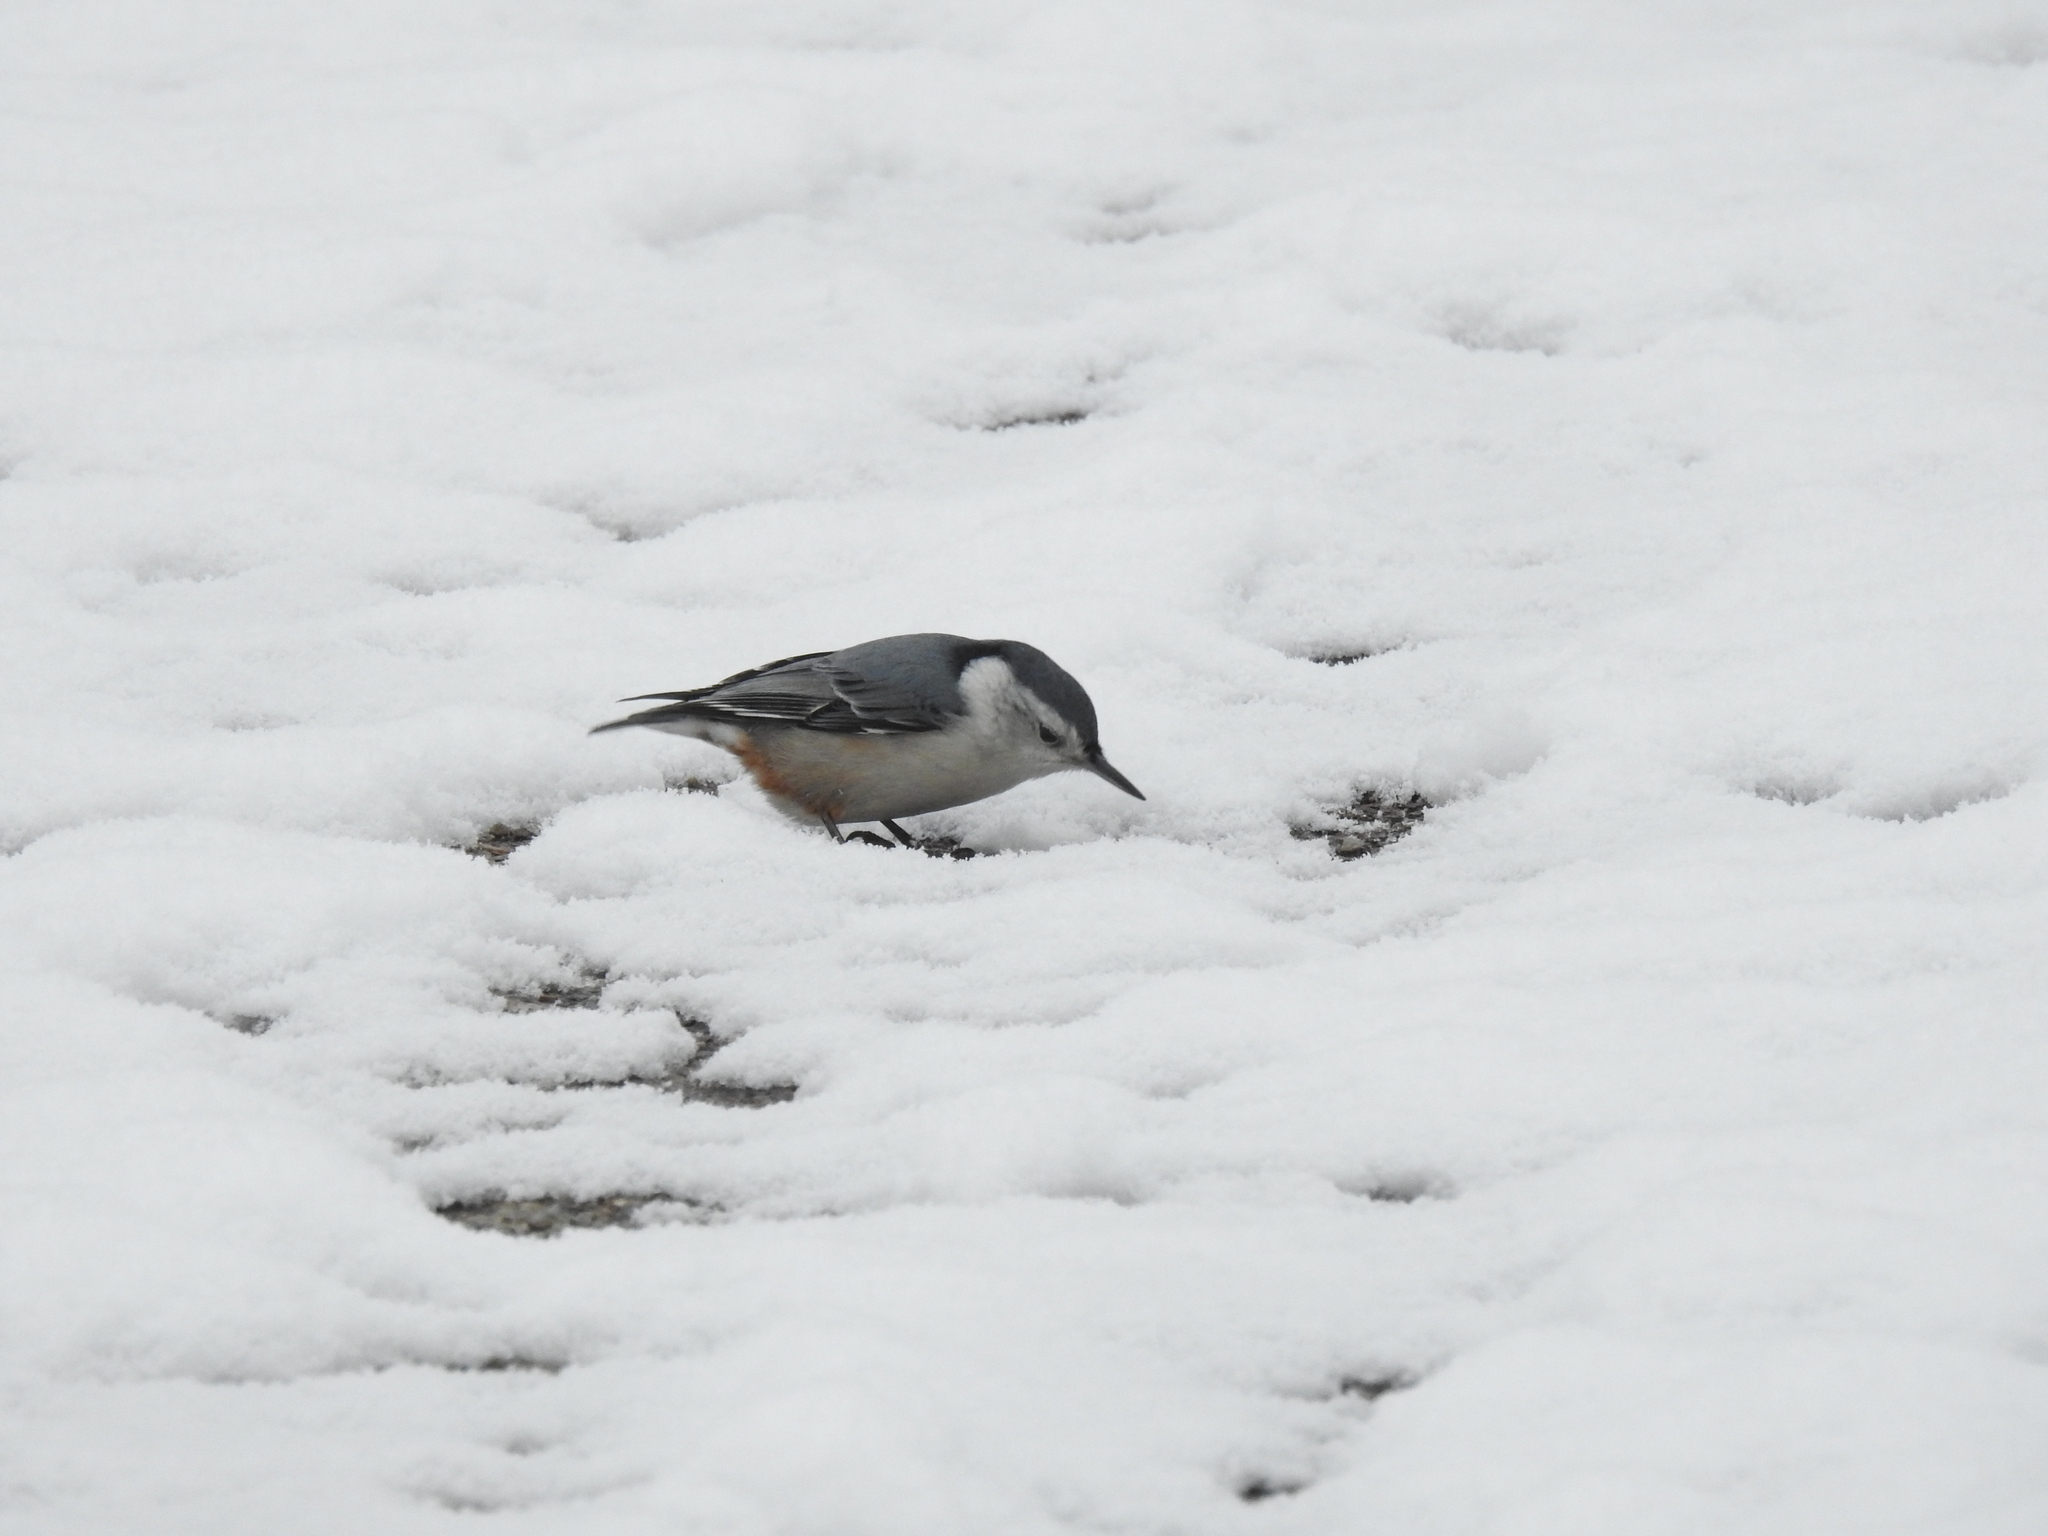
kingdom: Animalia
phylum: Chordata
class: Aves
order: Passeriformes
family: Sittidae
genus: Sitta
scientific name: Sitta carolinensis
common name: White-breasted nuthatch
